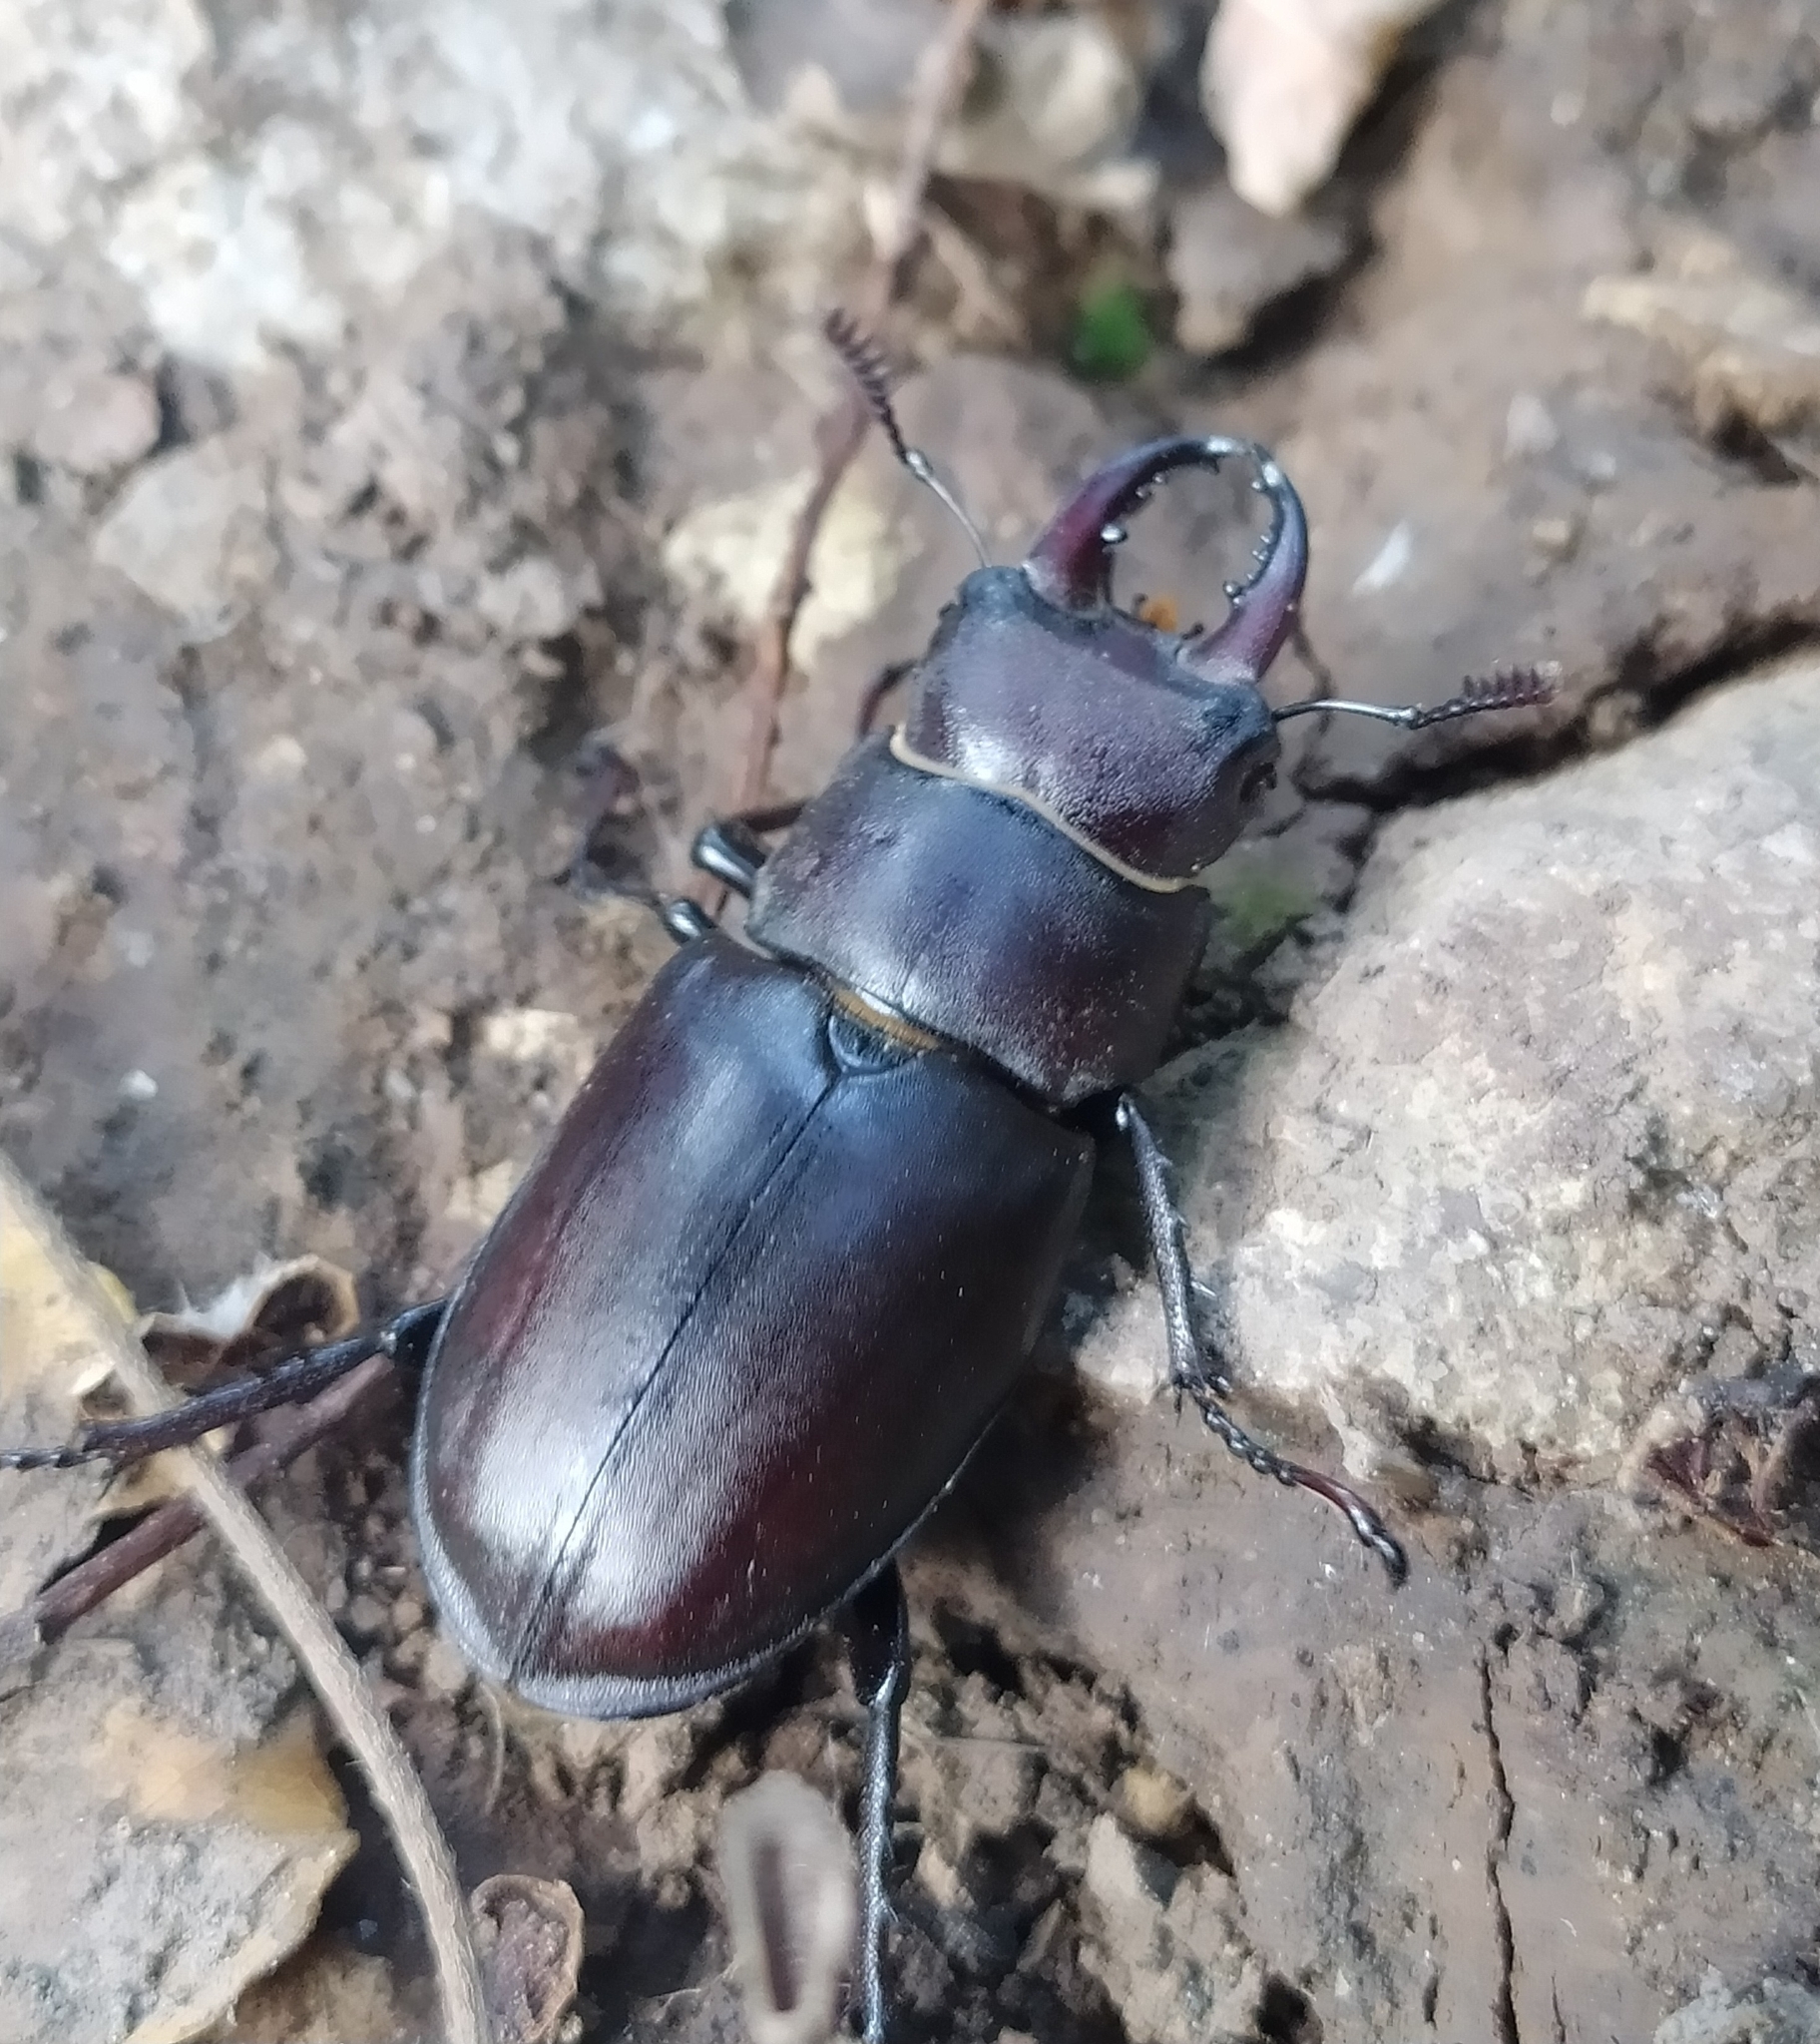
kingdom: Animalia
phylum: Arthropoda
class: Insecta
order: Coleoptera
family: Lucanidae
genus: Lucanus
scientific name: Lucanus tetraodon
